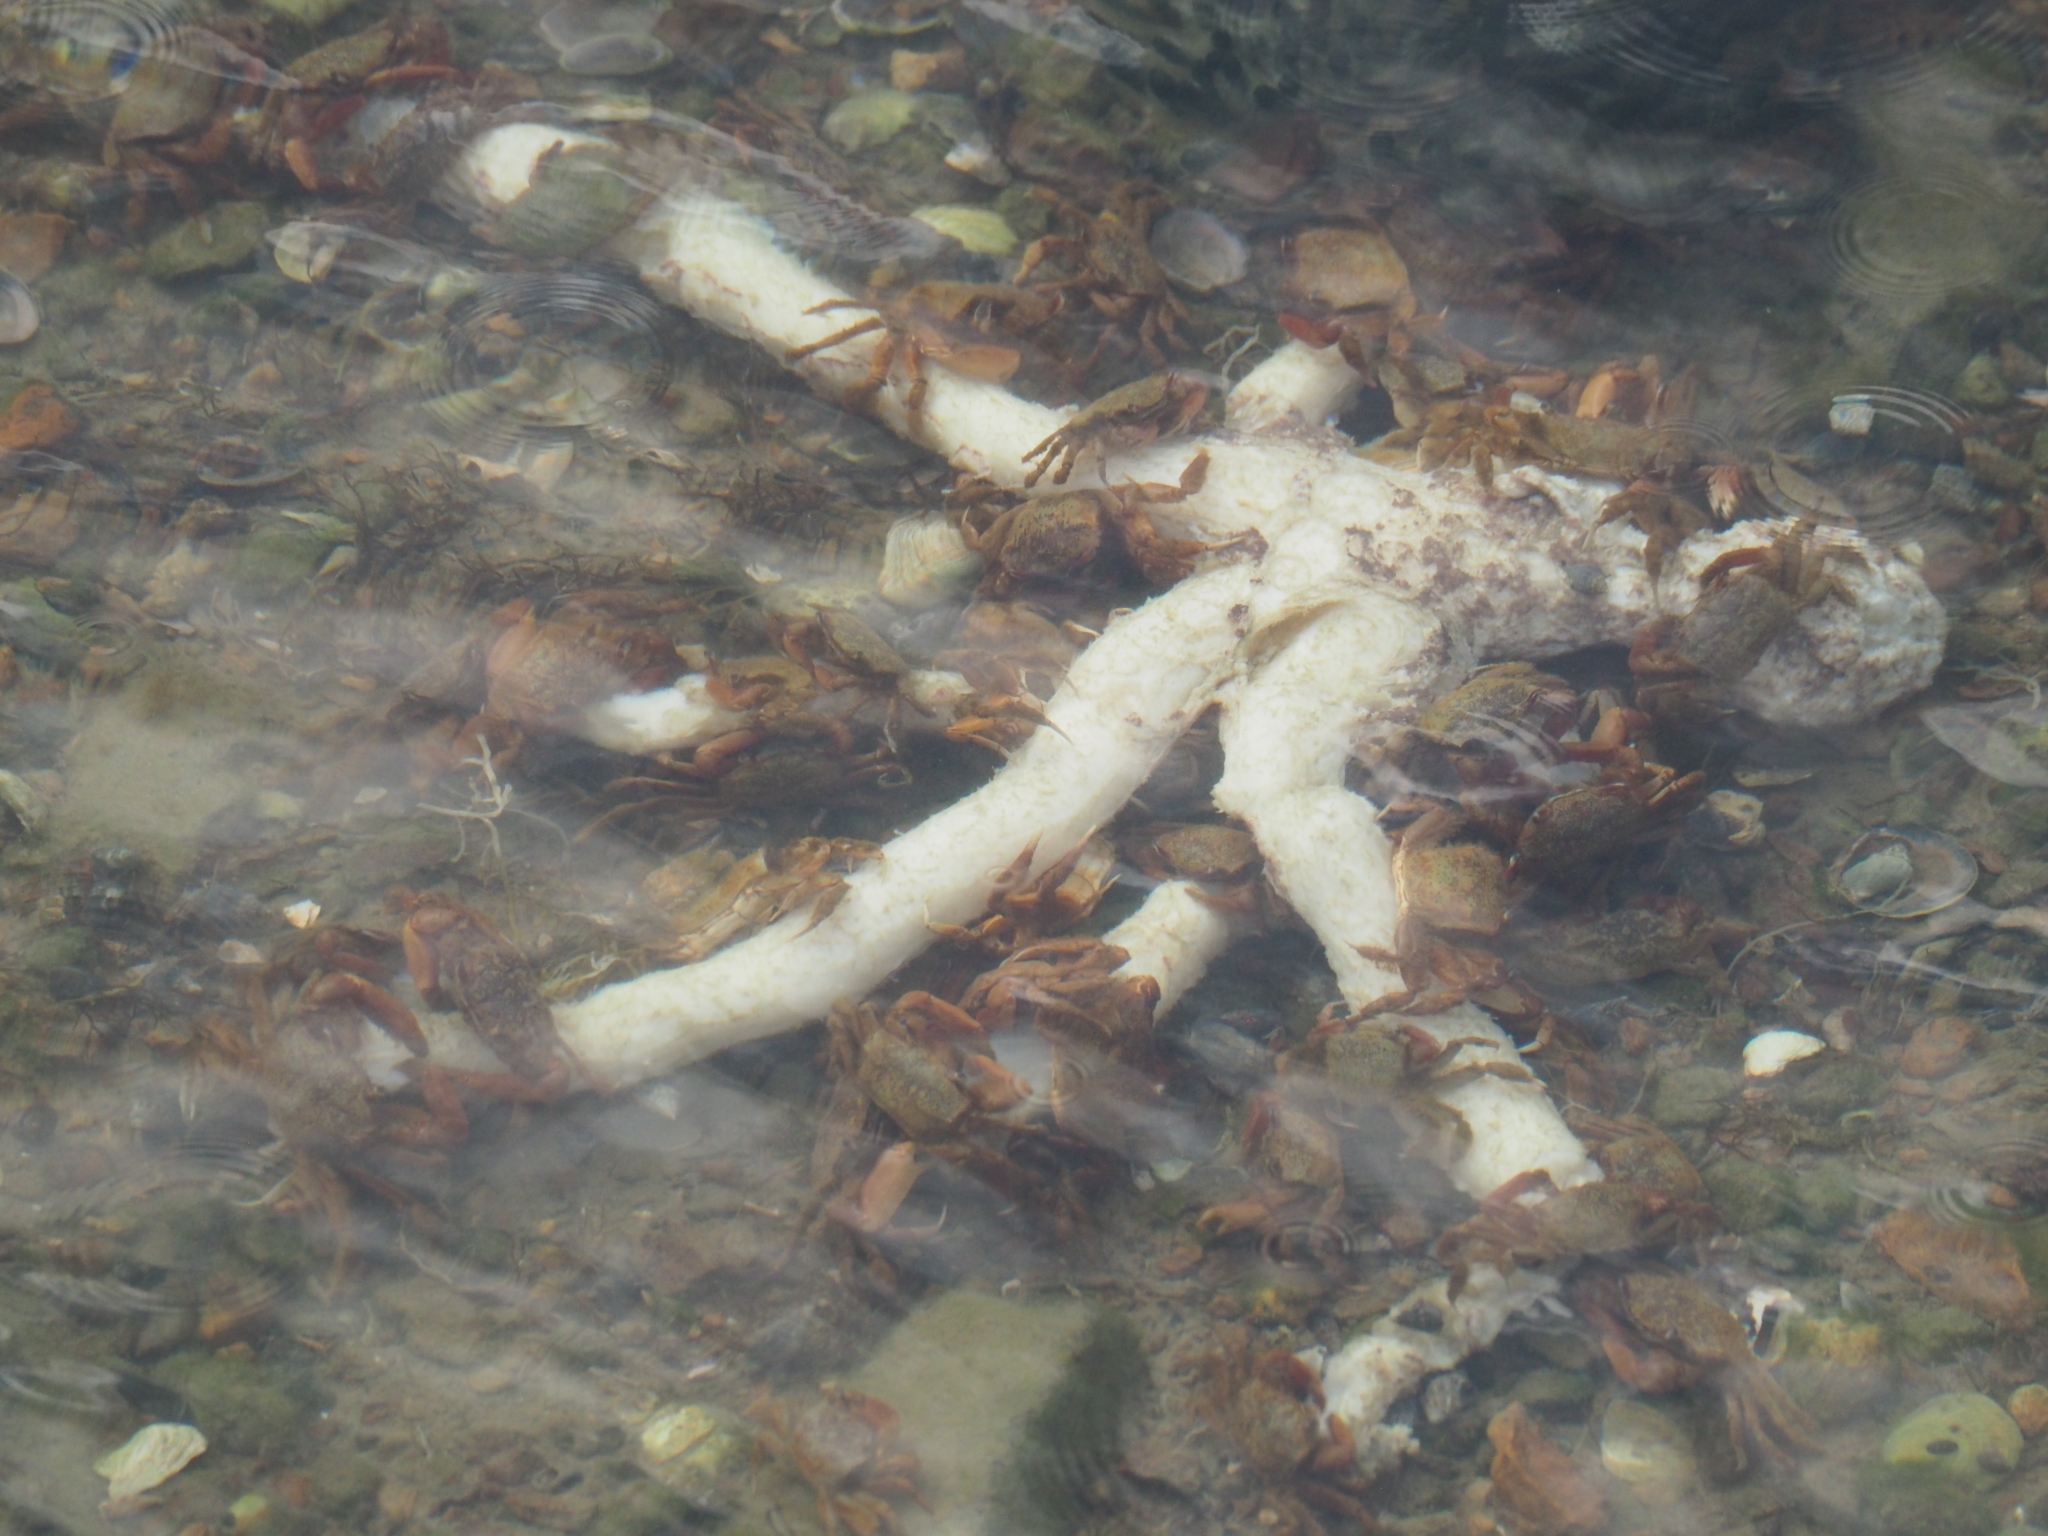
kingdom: Animalia
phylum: Arthropoda
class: Malacostraca
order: Decapoda
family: Macrophthalmidae
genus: Hemiplax
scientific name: Hemiplax hirtipes
